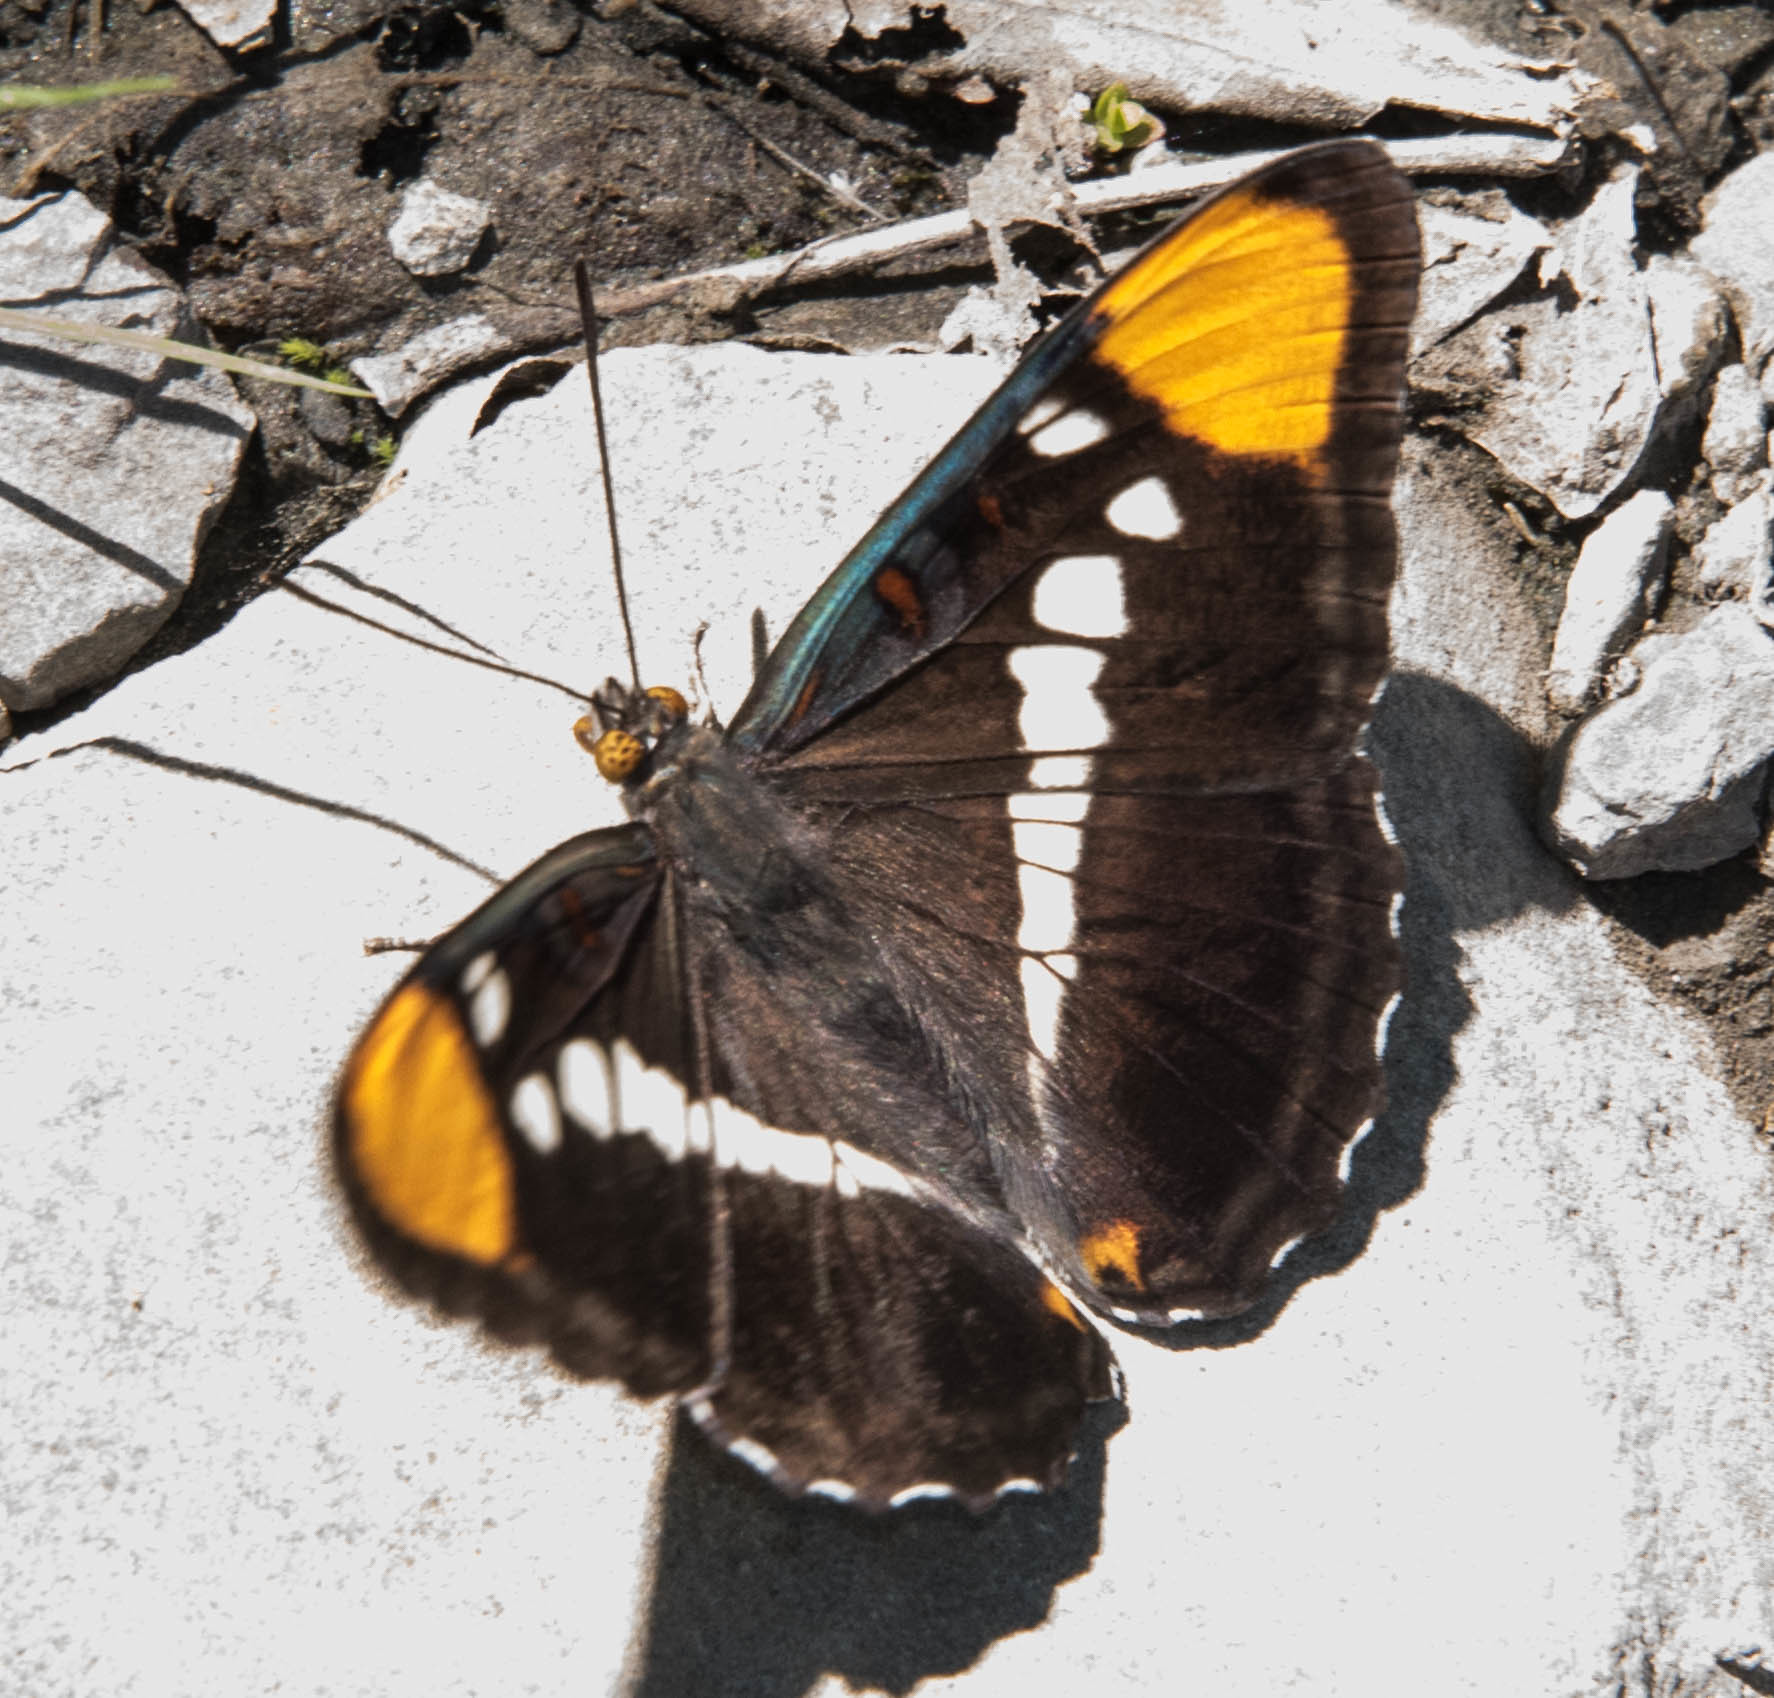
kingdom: Animalia
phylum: Arthropoda
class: Insecta
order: Lepidoptera
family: Nymphalidae
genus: Limenitis
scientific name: Limenitis bredowii
